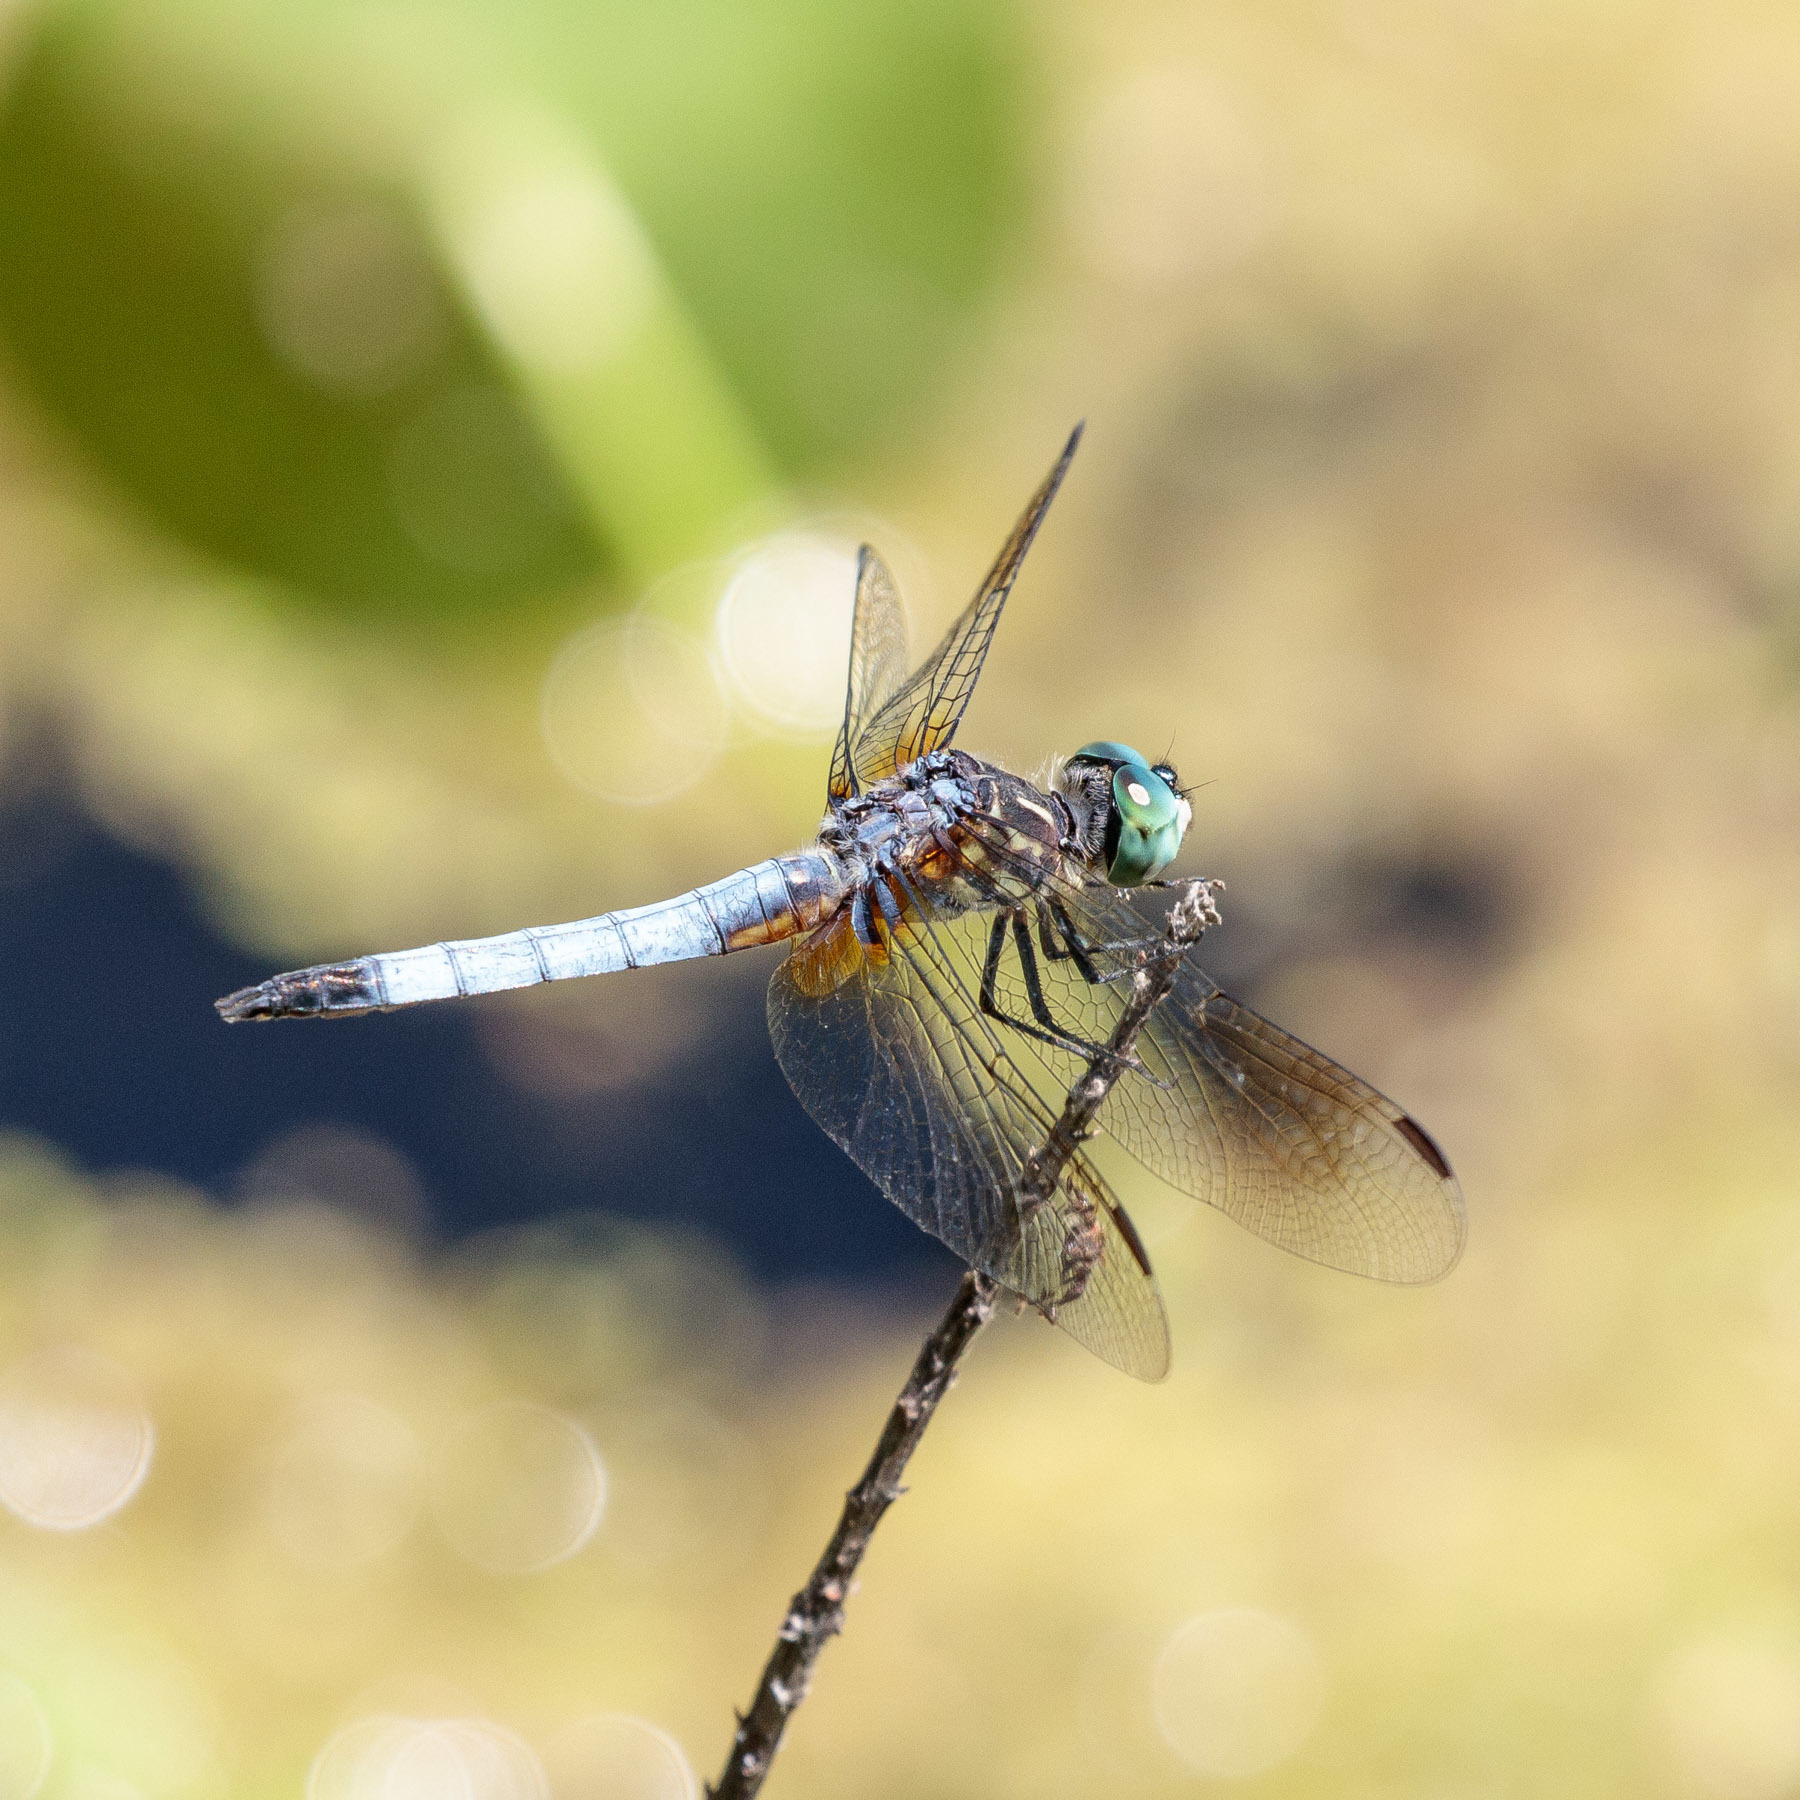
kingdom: Animalia
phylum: Arthropoda
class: Insecta
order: Odonata
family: Libellulidae
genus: Pachydiplax
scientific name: Pachydiplax longipennis
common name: Blue dasher
